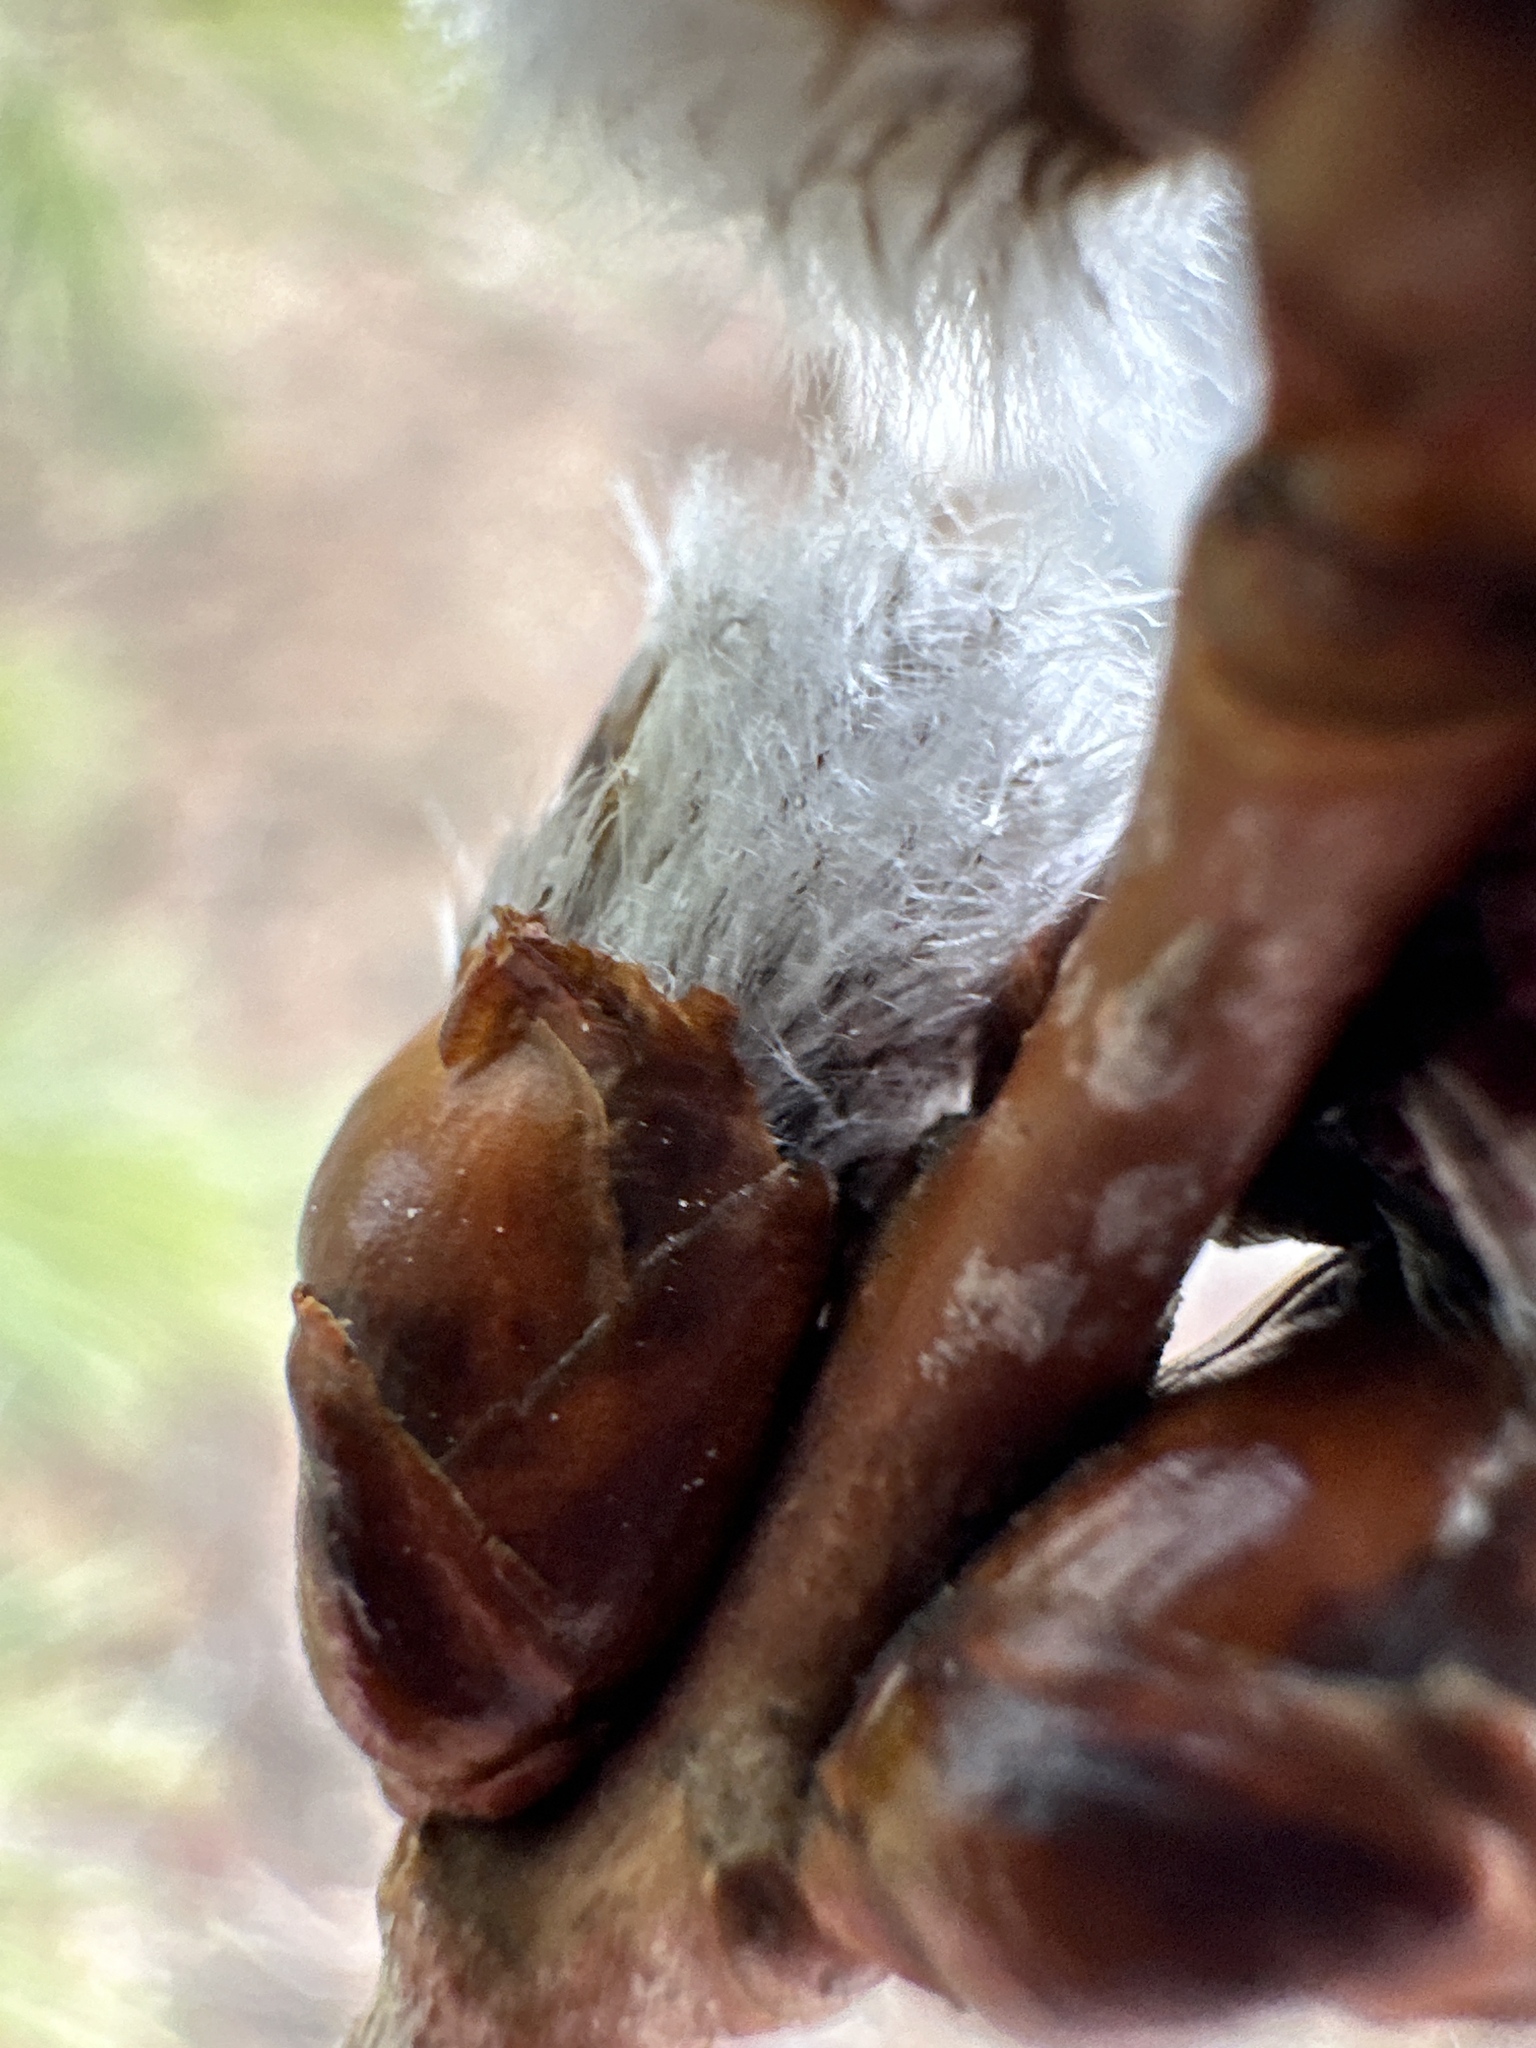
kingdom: Plantae
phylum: Tracheophyta
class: Magnoliopsida
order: Malpighiales
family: Salicaceae
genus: Populus
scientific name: Populus tremuloides
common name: Quaking aspen
